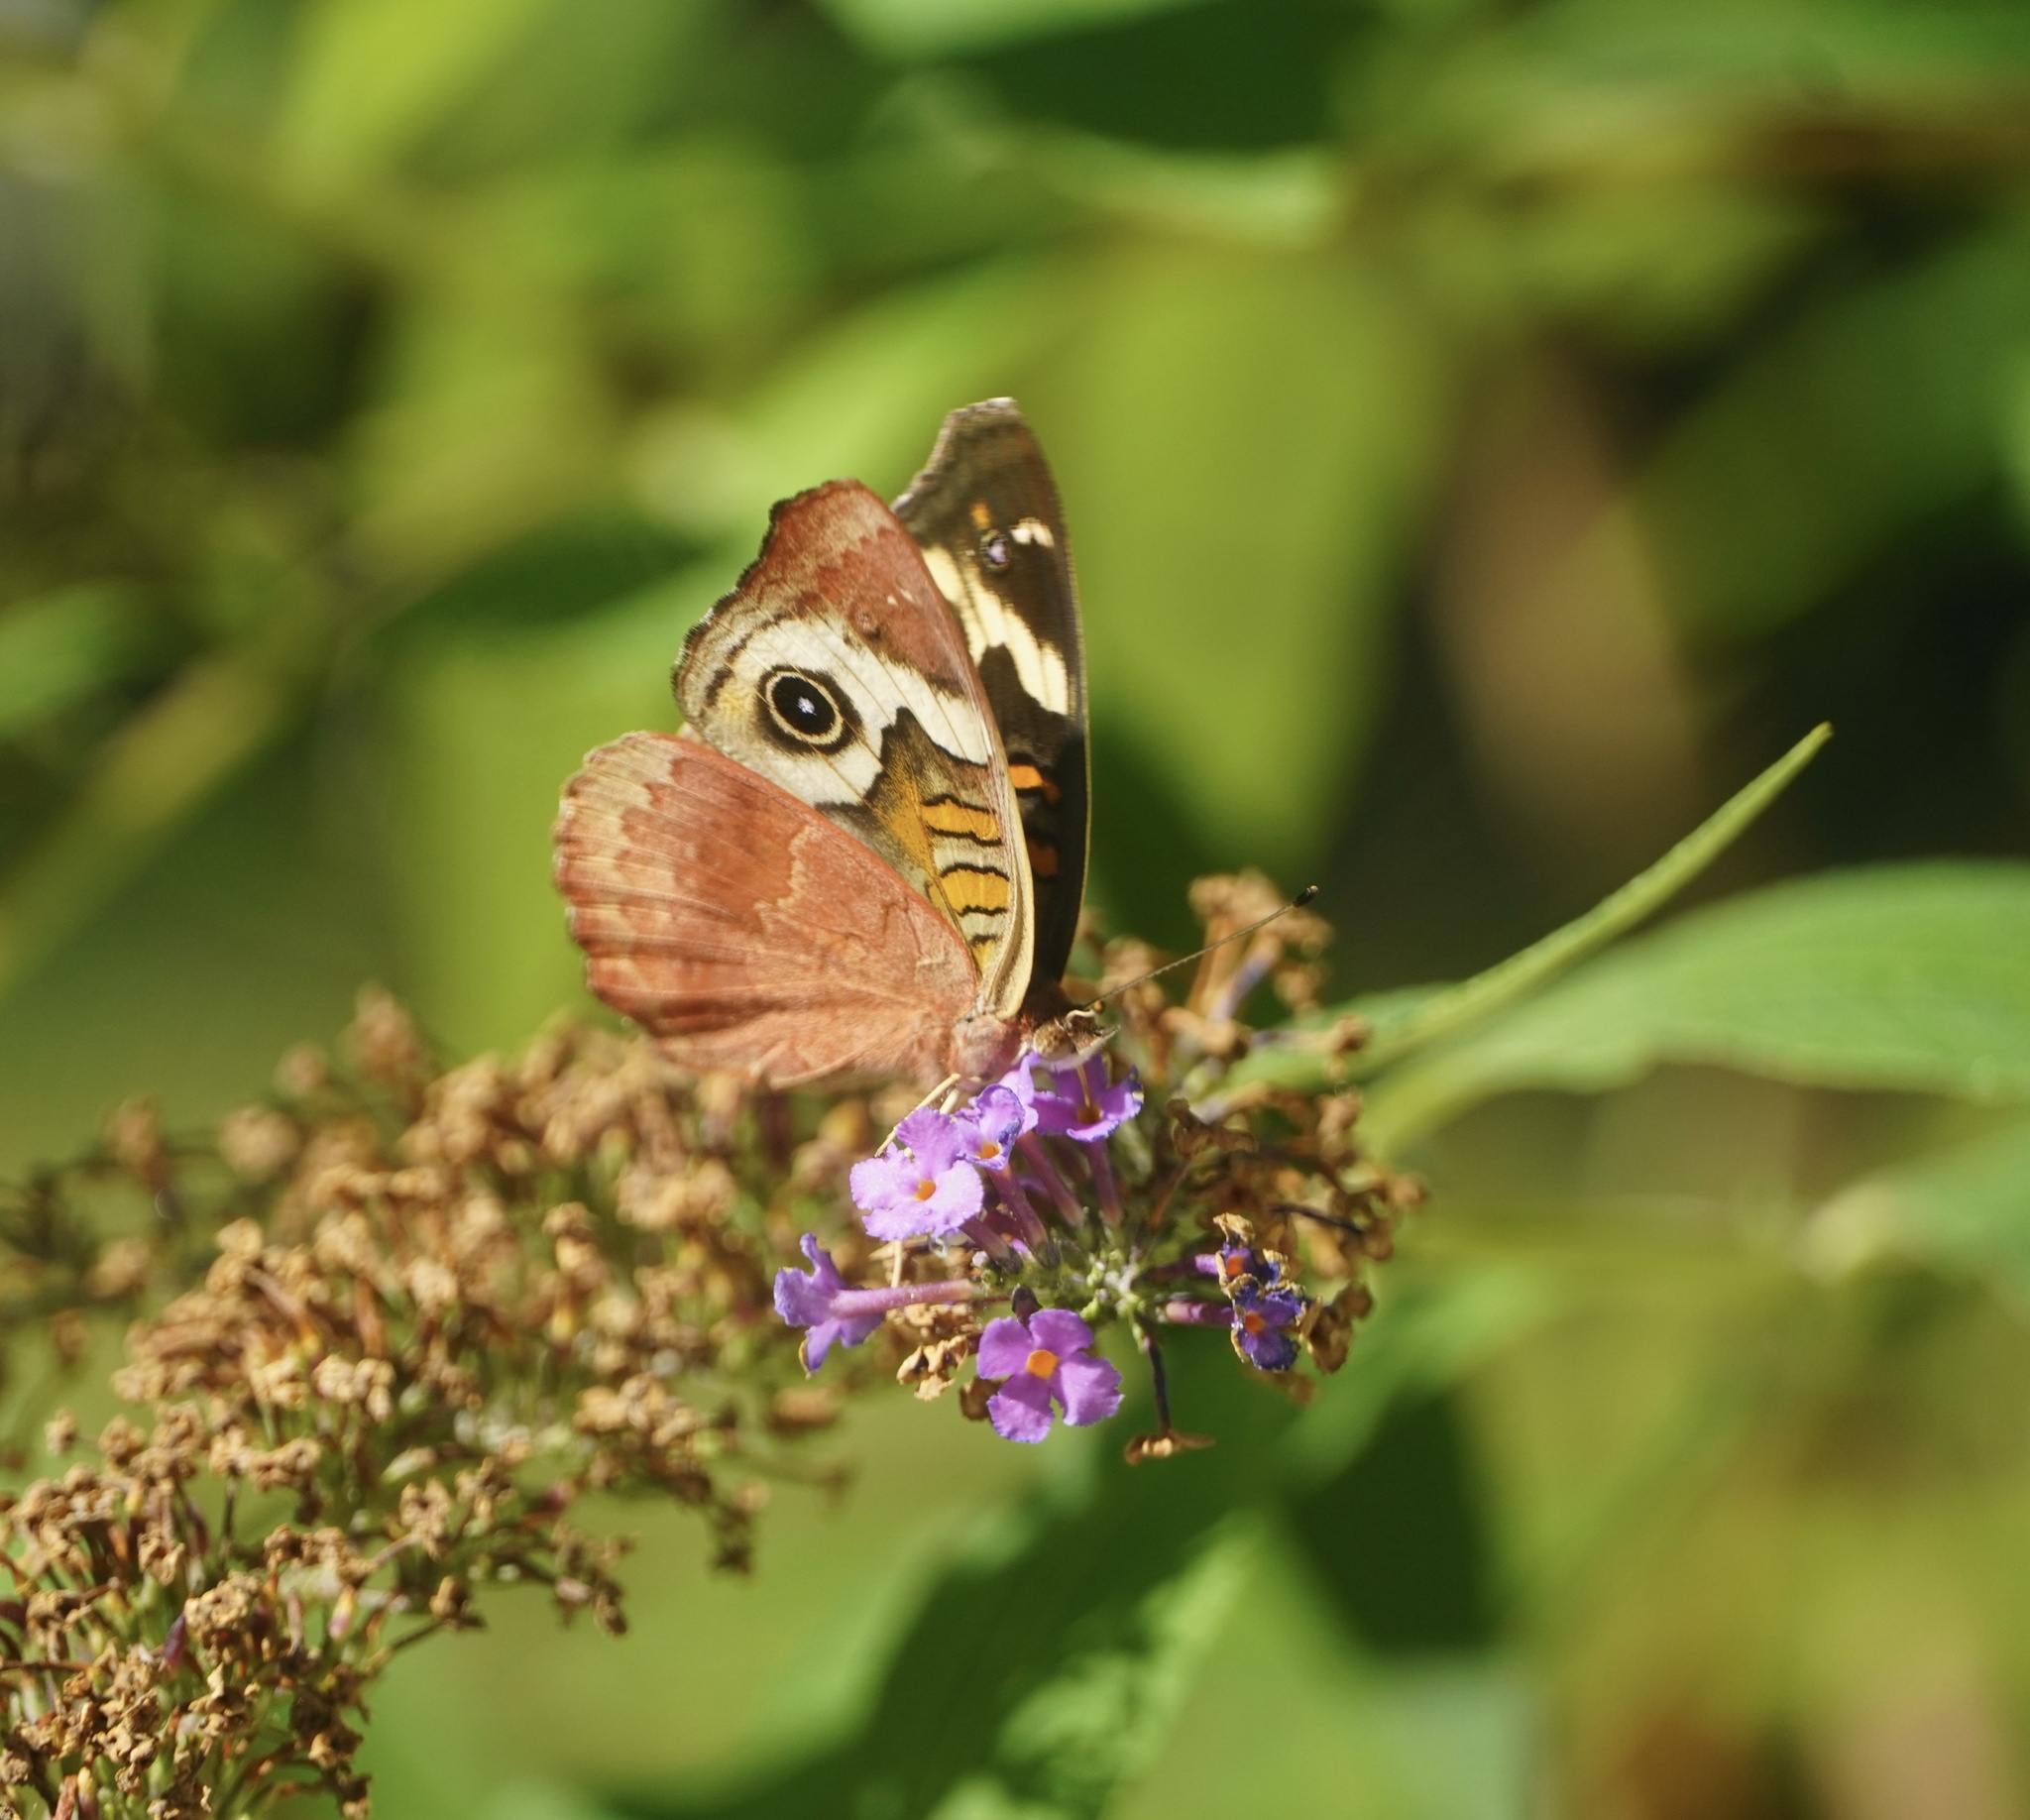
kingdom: Animalia
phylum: Arthropoda
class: Insecta
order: Lepidoptera
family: Nymphalidae
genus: Junonia
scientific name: Junonia coenia
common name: Common buckeye
